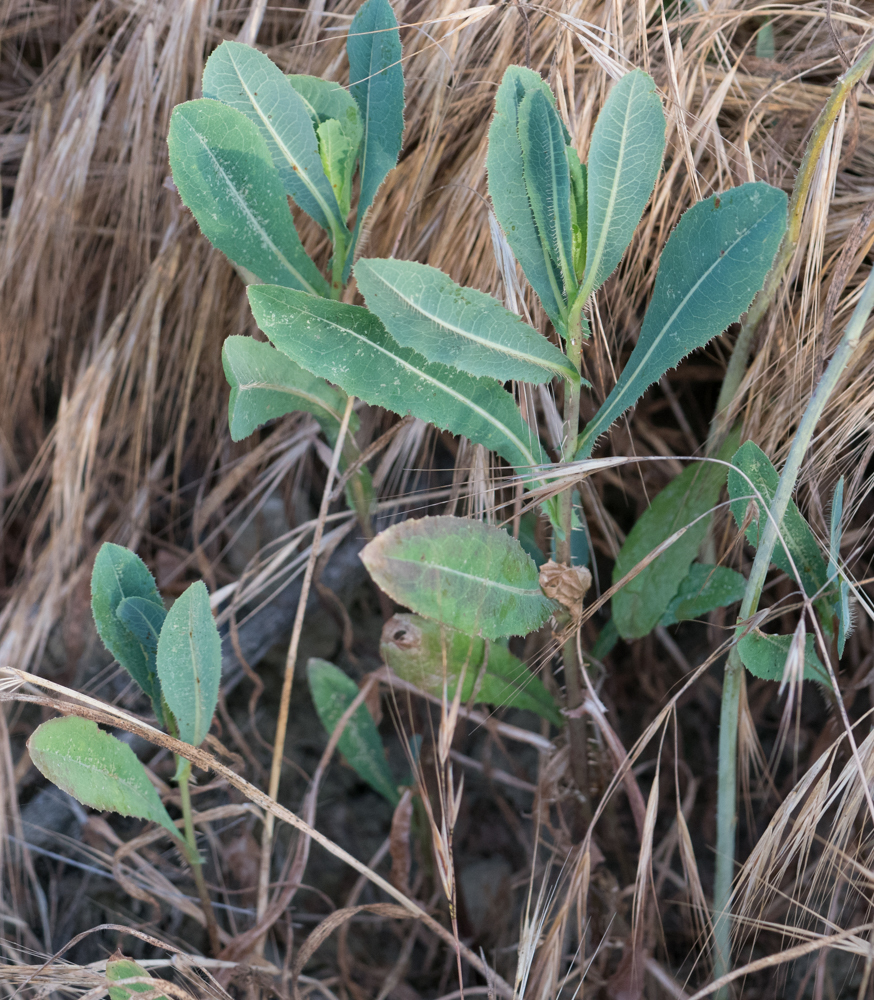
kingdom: Plantae
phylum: Tracheophyta
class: Magnoliopsida
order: Asterales
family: Asteraceae
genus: Lactuca
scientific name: Lactuca serriola
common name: Prickly lettuce
